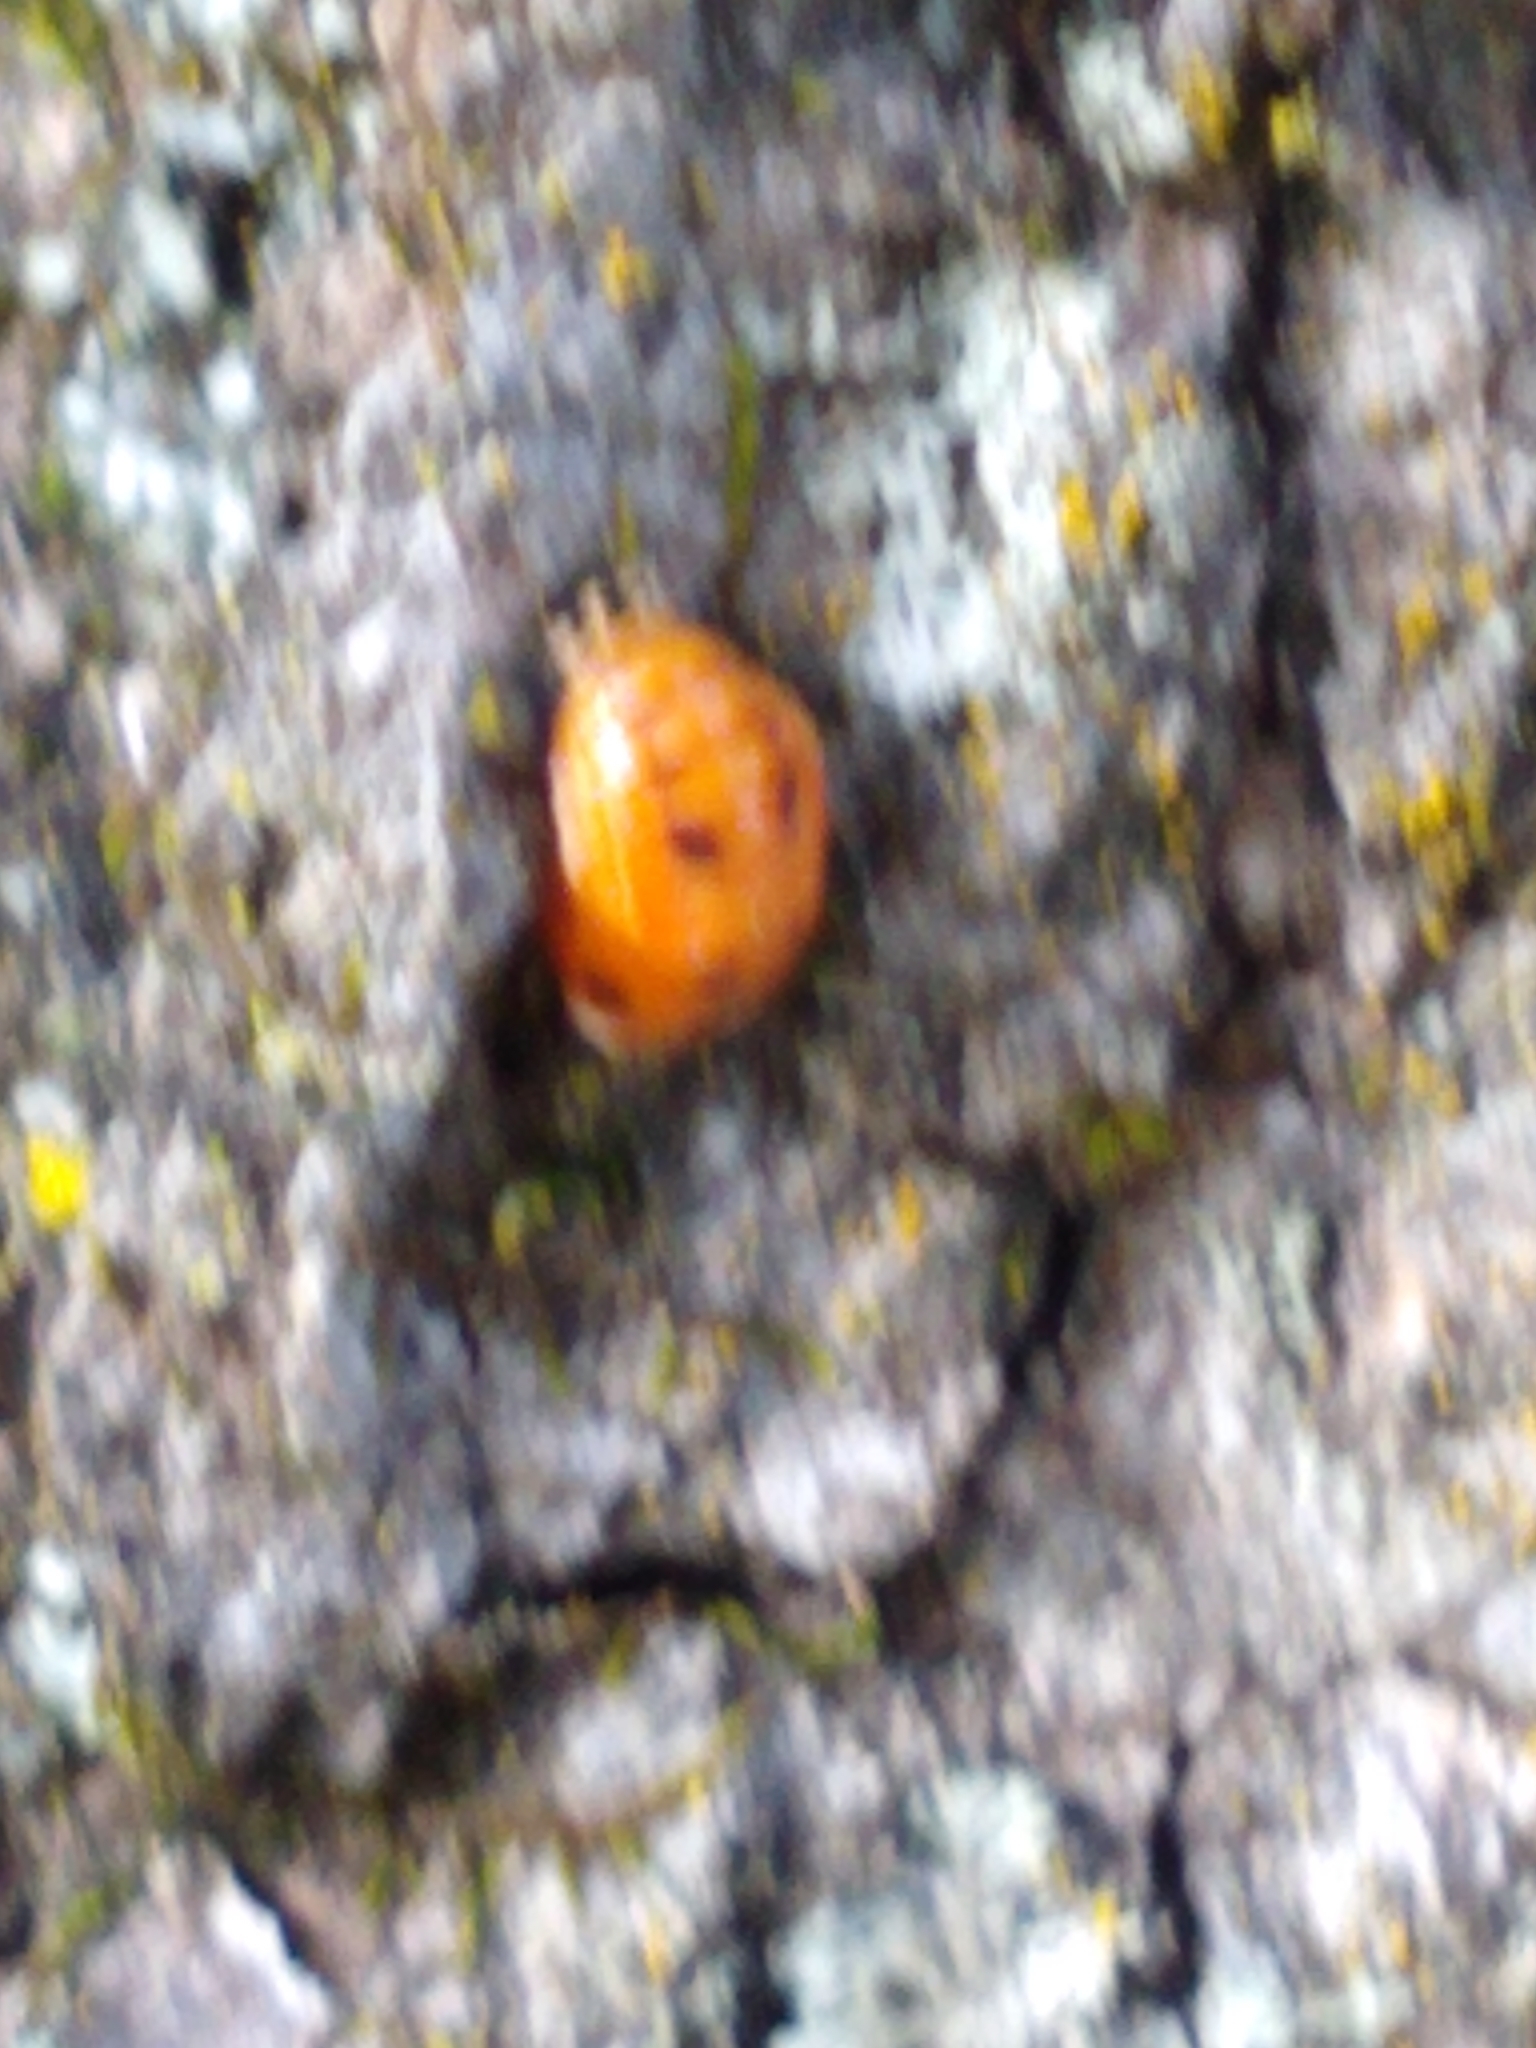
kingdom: Animalia
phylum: Arthropoda
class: Insecta
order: Coleoptera
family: Coccinellidae
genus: Harmonia
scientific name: Harmonia axyridis
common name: Harlequin ladybird
